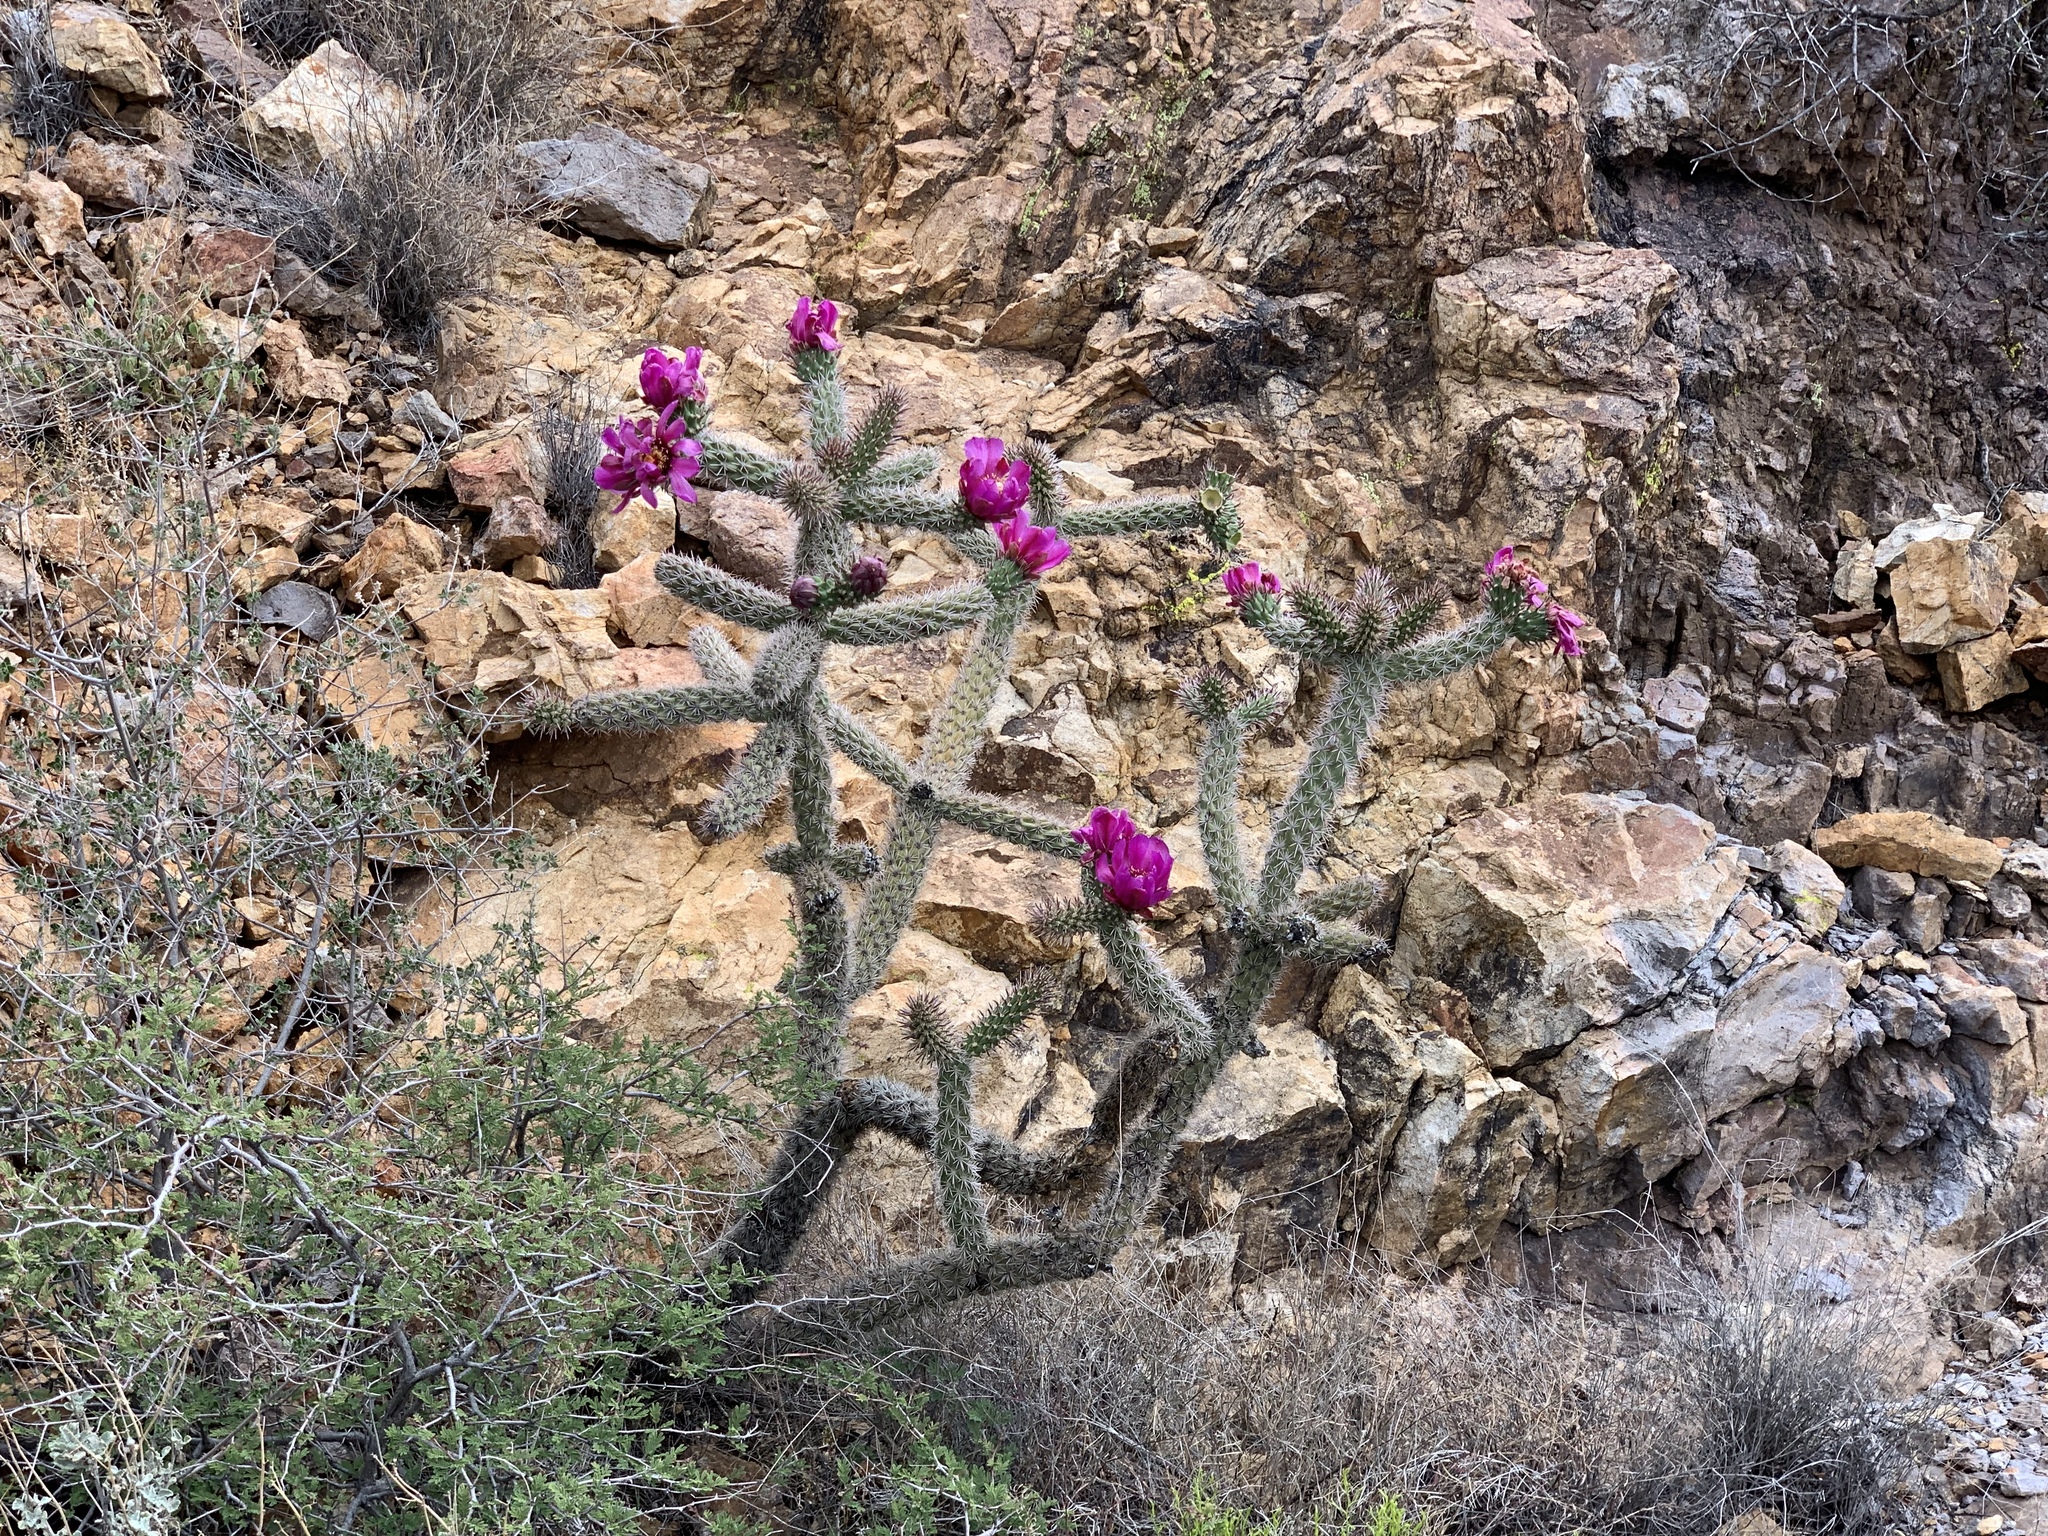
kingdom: Plantae
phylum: Tracheophyta
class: Magnoliopsida
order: Caryophyllales
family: Cactaceae
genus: Cylindropuntia
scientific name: Cylindropuntia imbricata
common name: Candelabrum cactus
